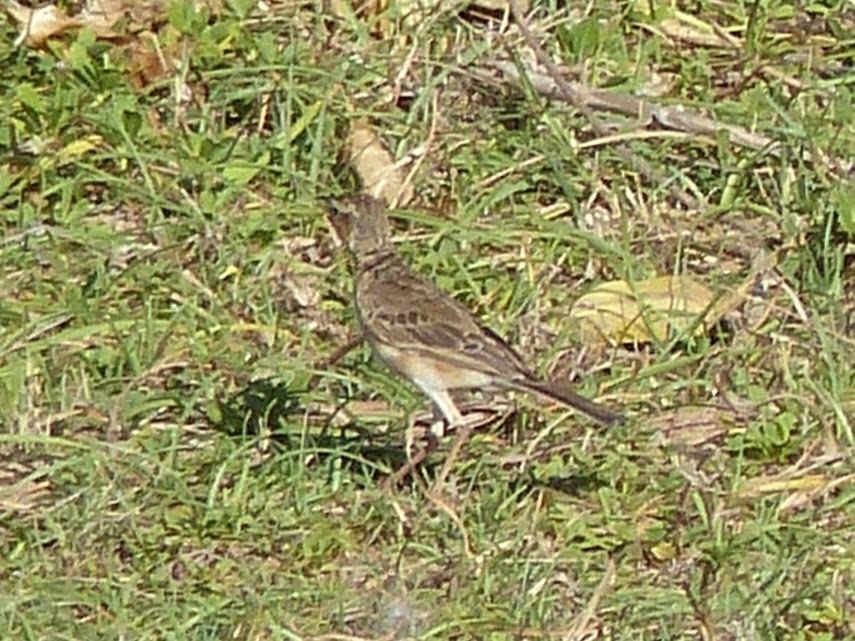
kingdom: Animalia
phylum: Chordata
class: Aves
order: Passeriformes
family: Motacillidae
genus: Anthus
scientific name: Anthus rufulus
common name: Paddyfield pipit
